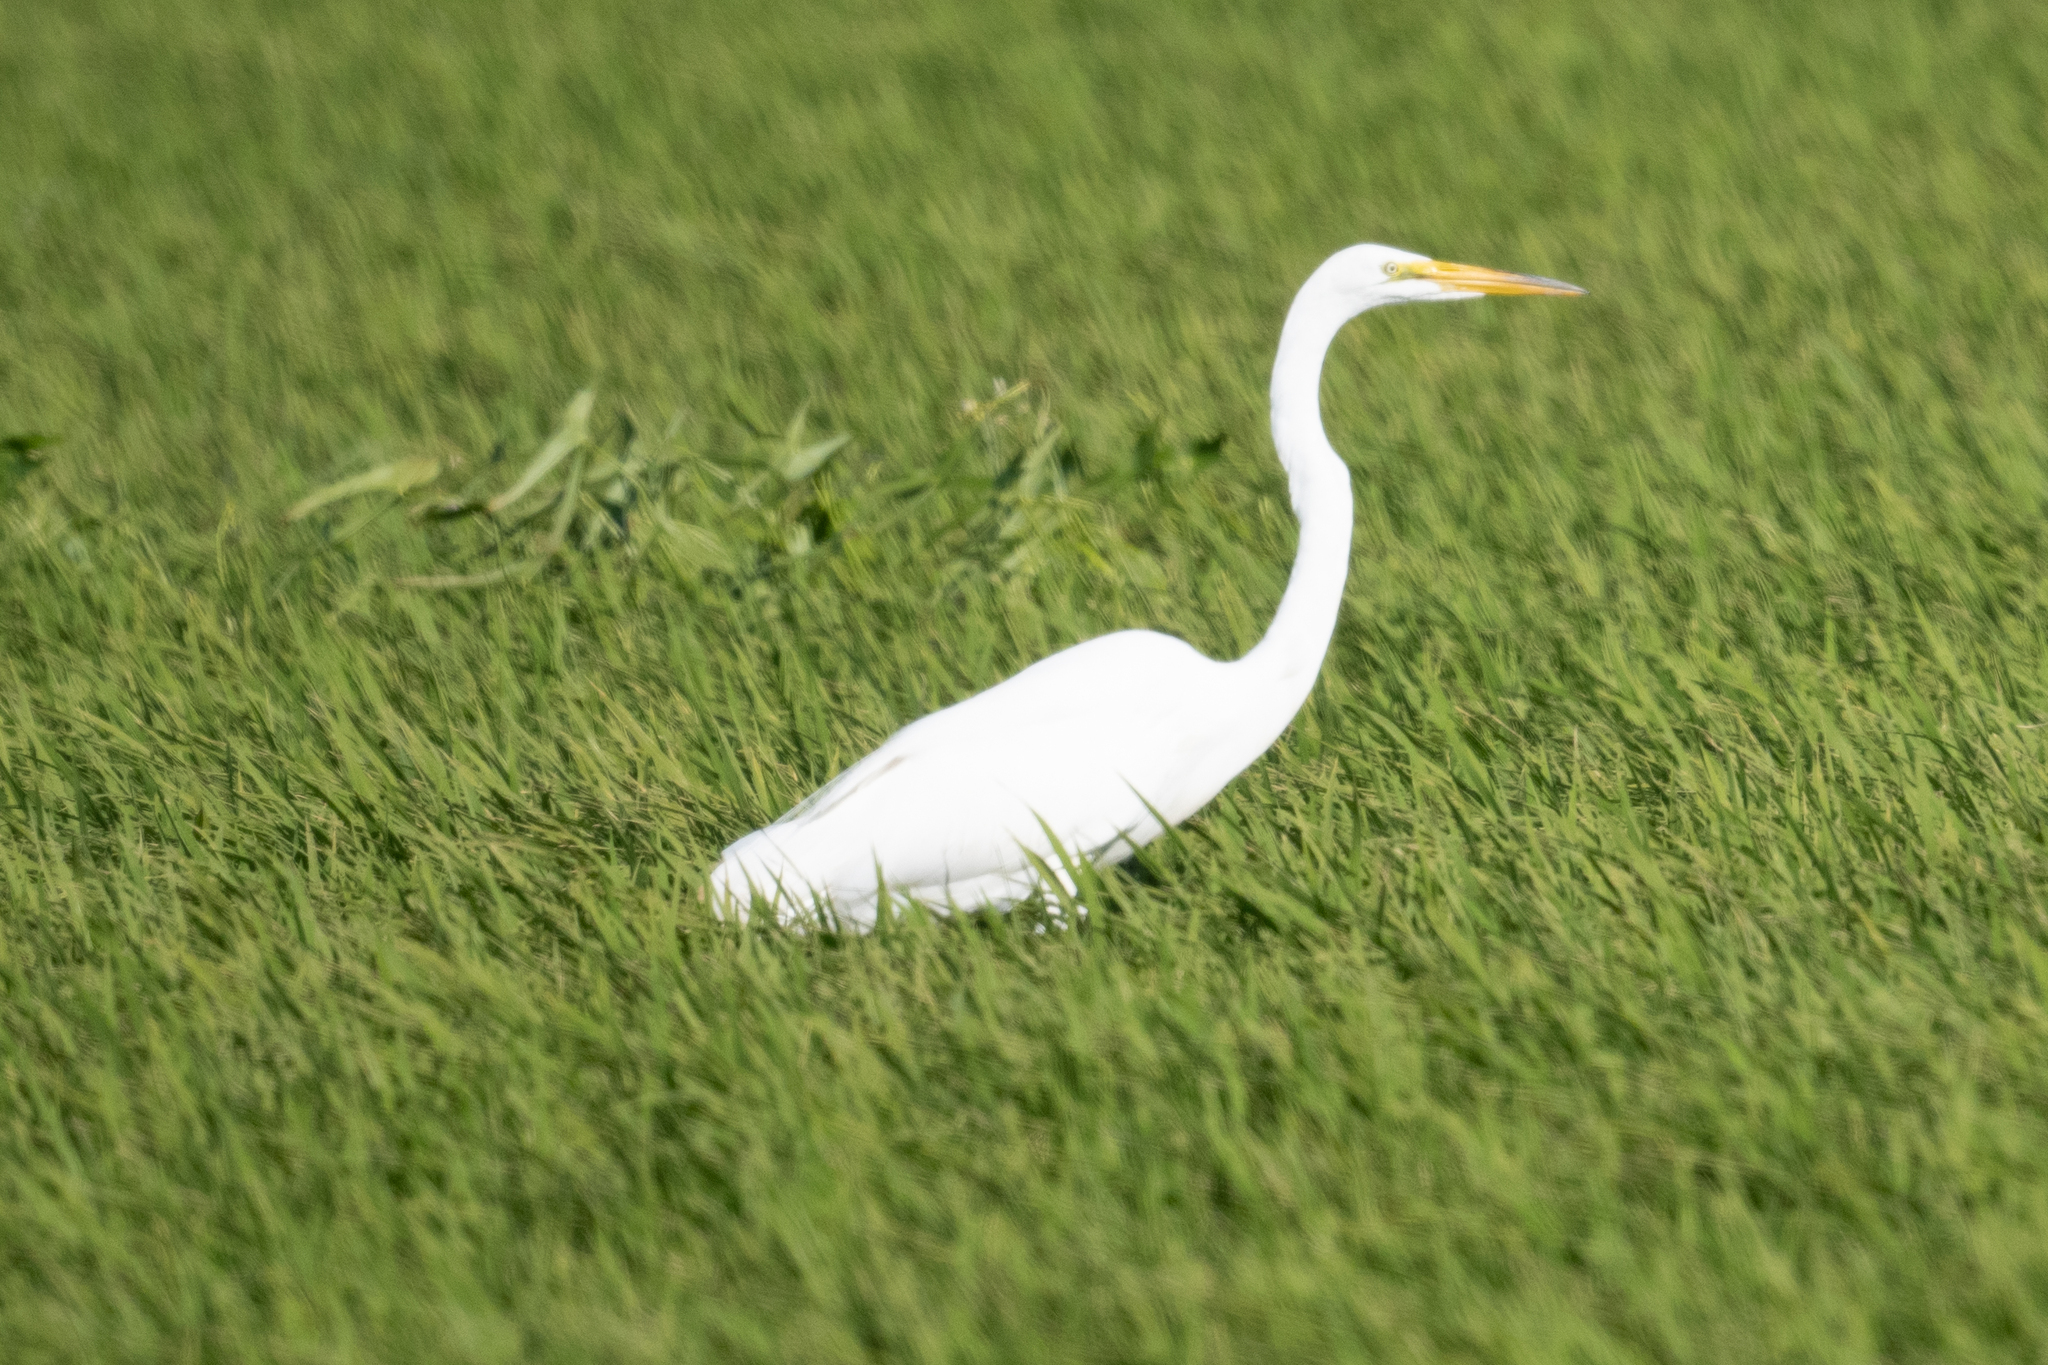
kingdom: Animalia
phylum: Chordata
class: Aves
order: Pelecaniformes
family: Ardeidae
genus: Ardea
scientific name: Ardea alba
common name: Great egret
